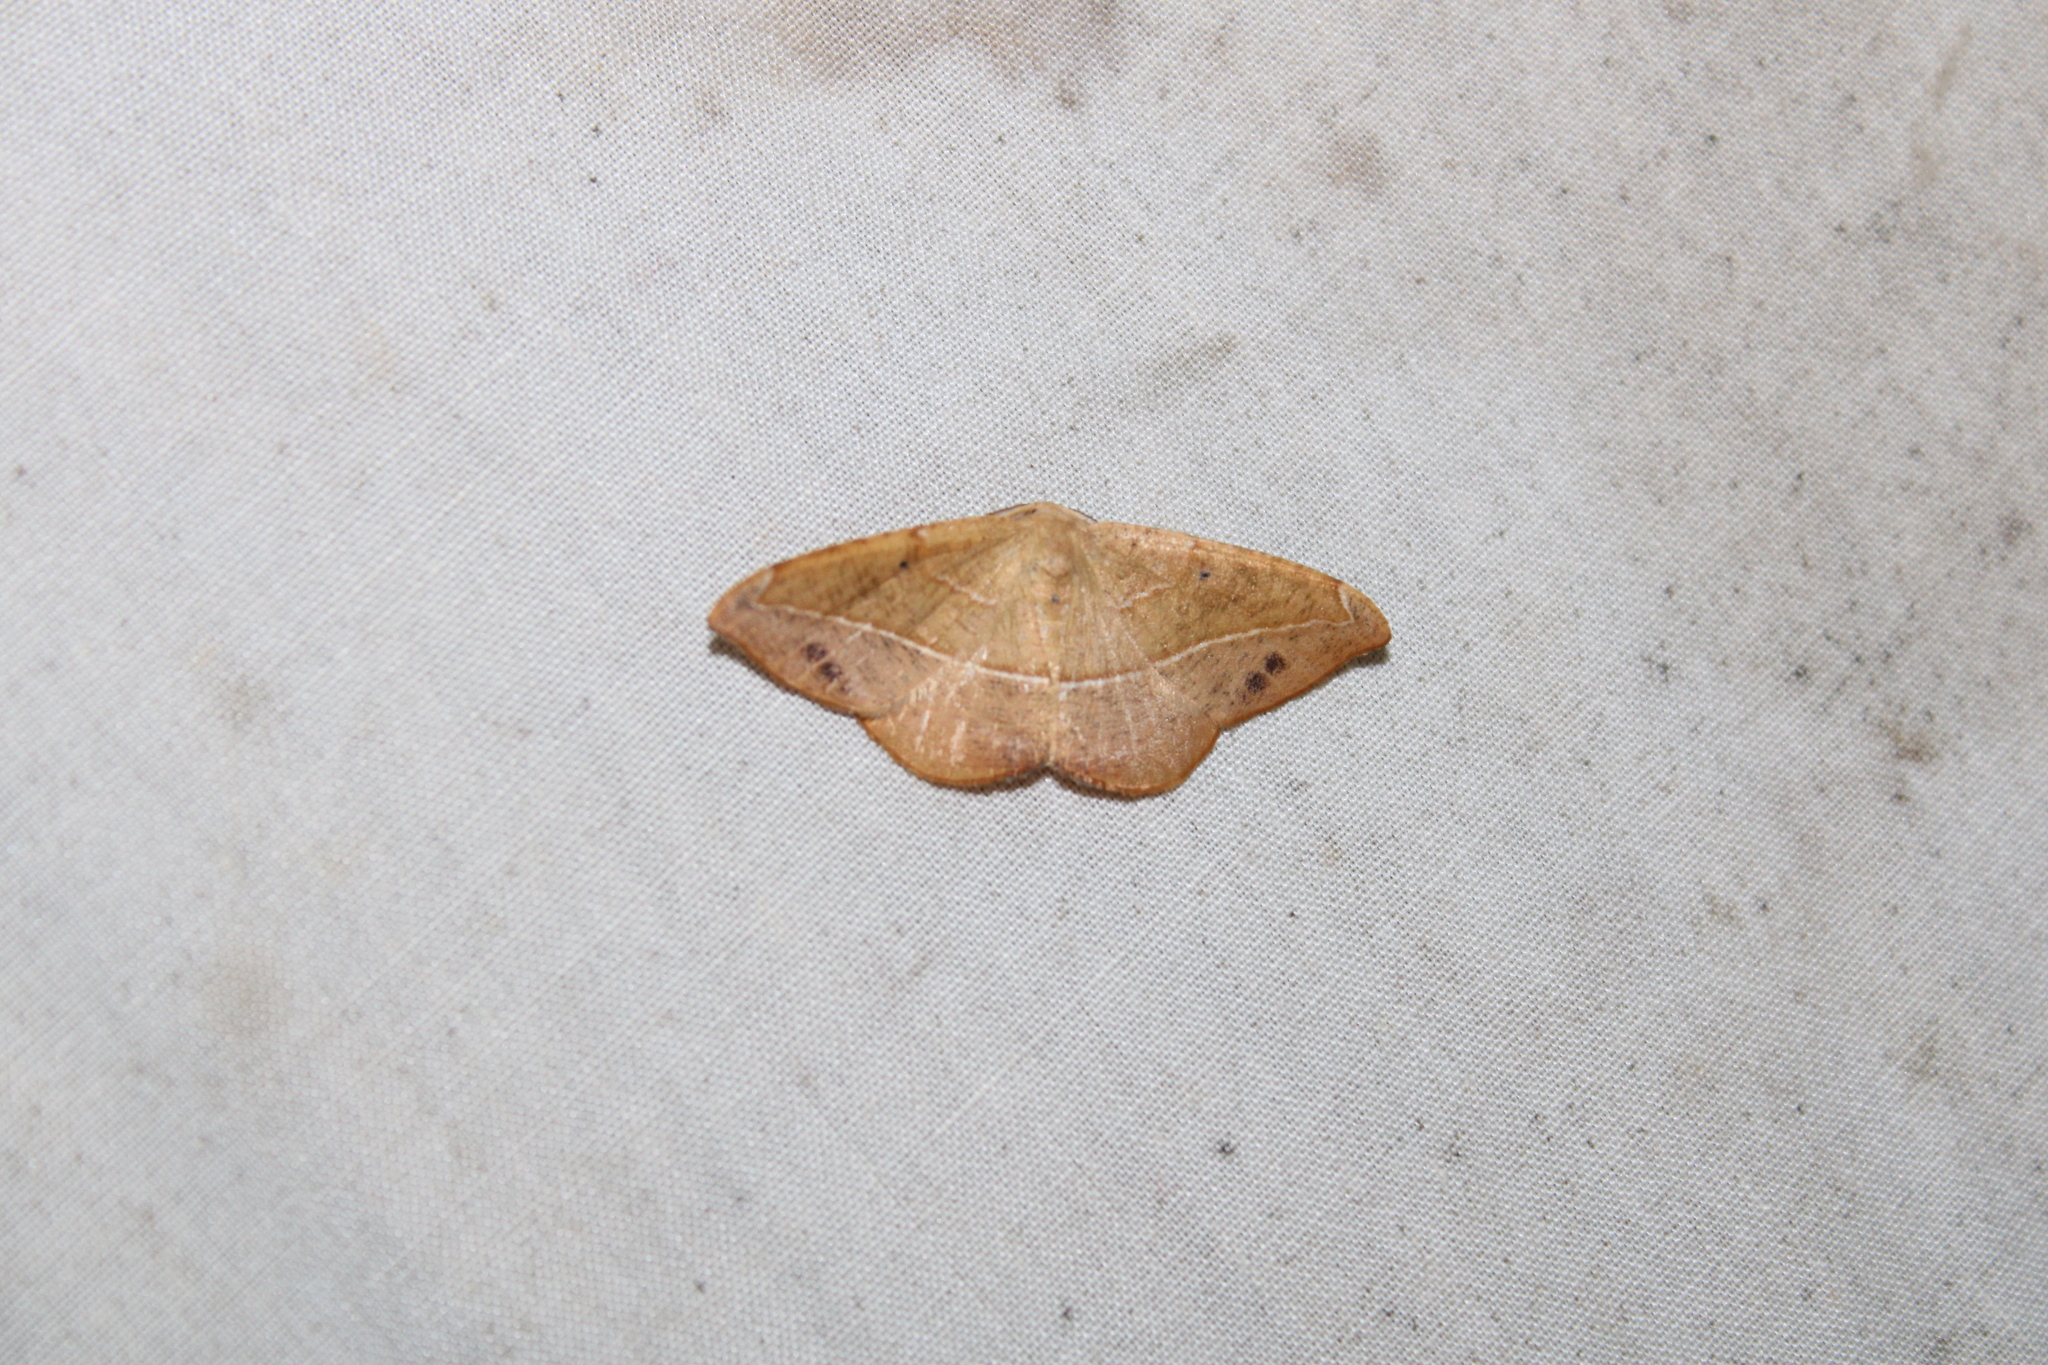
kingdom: Animalia
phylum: Arthropoda
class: Insecta
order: Lepidoptera
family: Geometridae
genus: Patalene
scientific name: Patalene olyzonaria
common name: Juniper geometer moth
